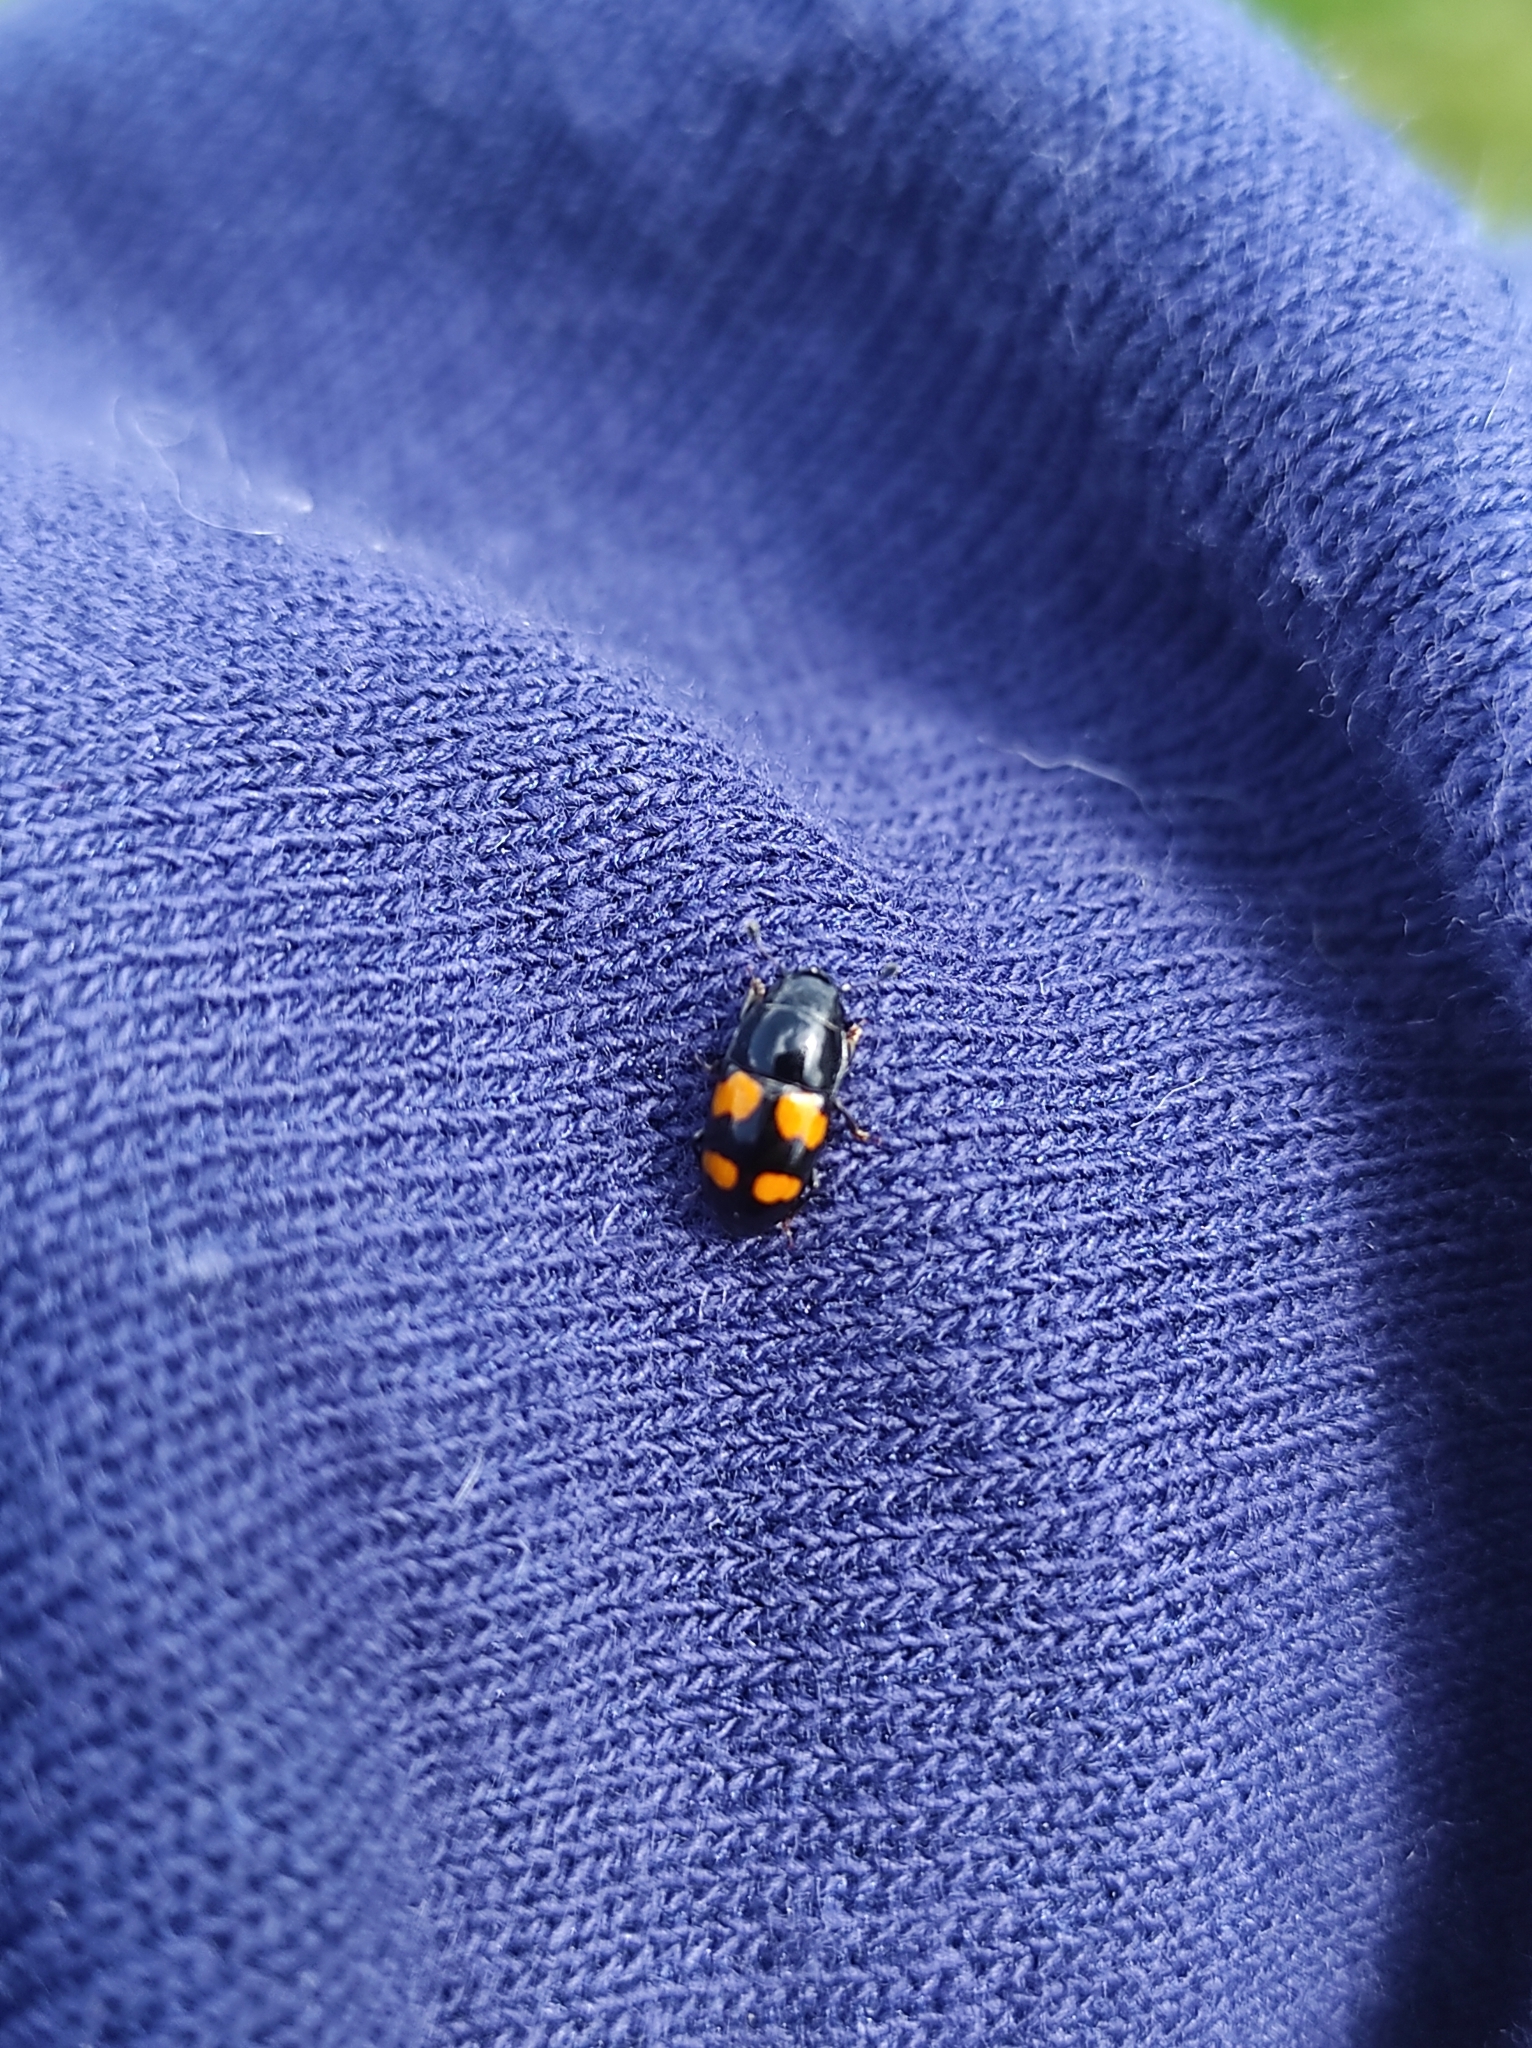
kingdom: Animalia
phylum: Arthropoda
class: Insecta
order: Coleoptera
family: Nitidulidae
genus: Glischrochilus
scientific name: Glischrochilus grandis
